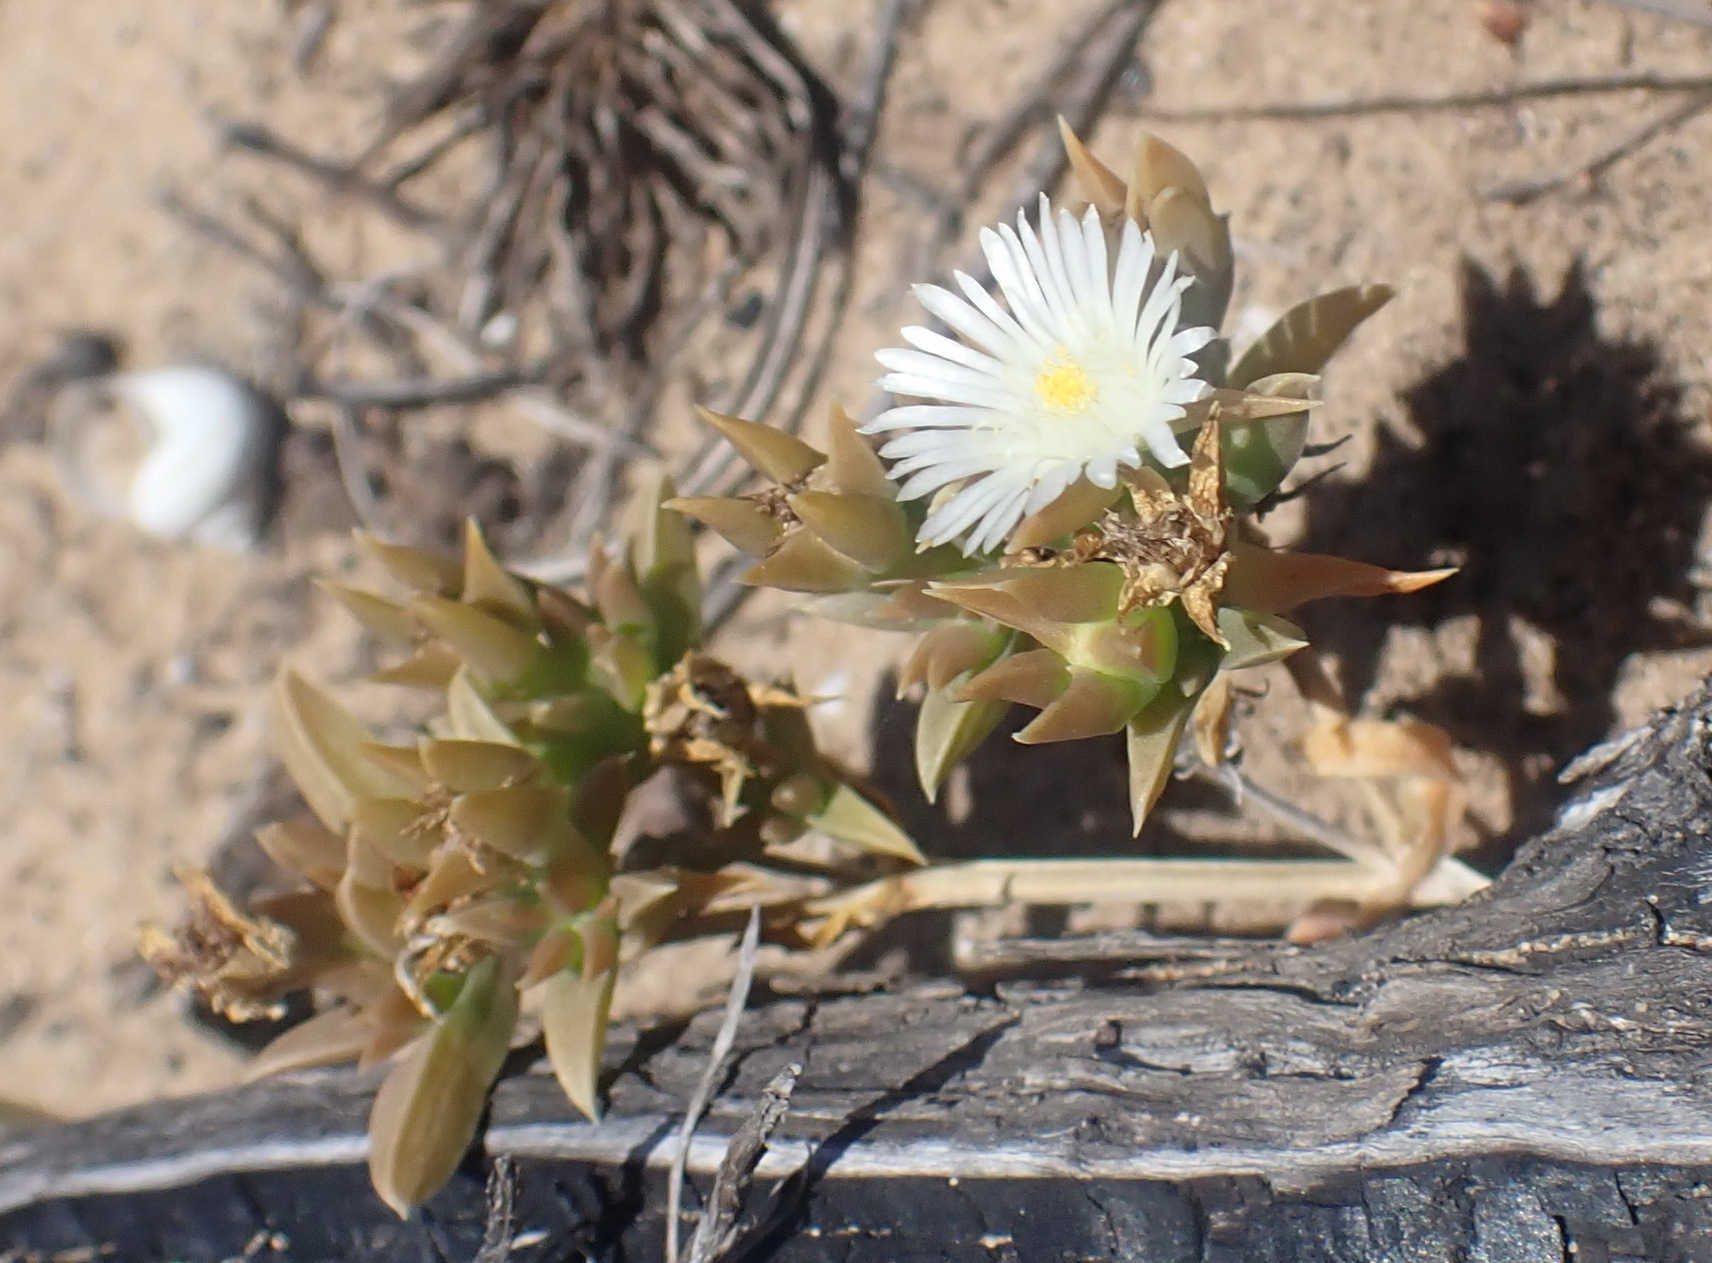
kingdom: Plantae
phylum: Tracheophyta
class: Magnoliopsida
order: Caryophyllales
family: Aizoaceae
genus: Delosperma
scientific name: Delosperma inconspicuum
